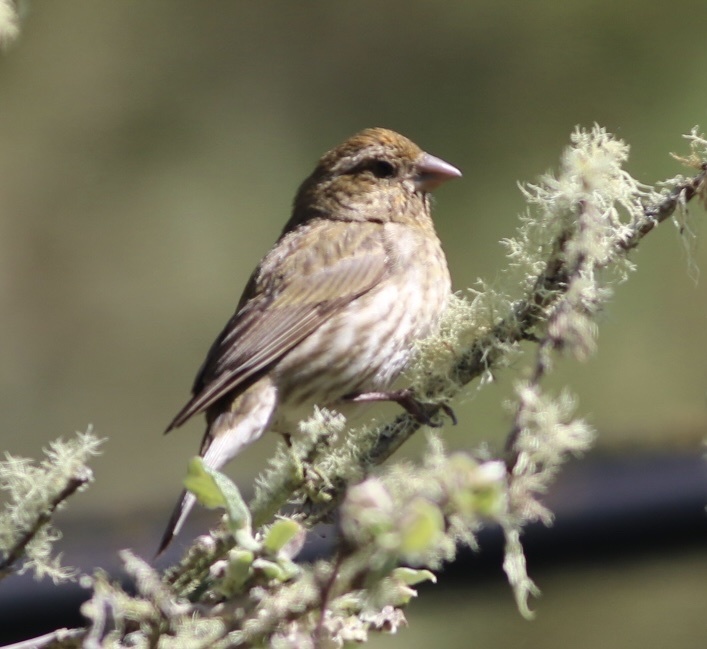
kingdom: Animalia
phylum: Chordata
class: Aves
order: Passeriformes
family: Fringillidae
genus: Haemorhous
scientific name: Haemorhous purpureus
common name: Purple finch
